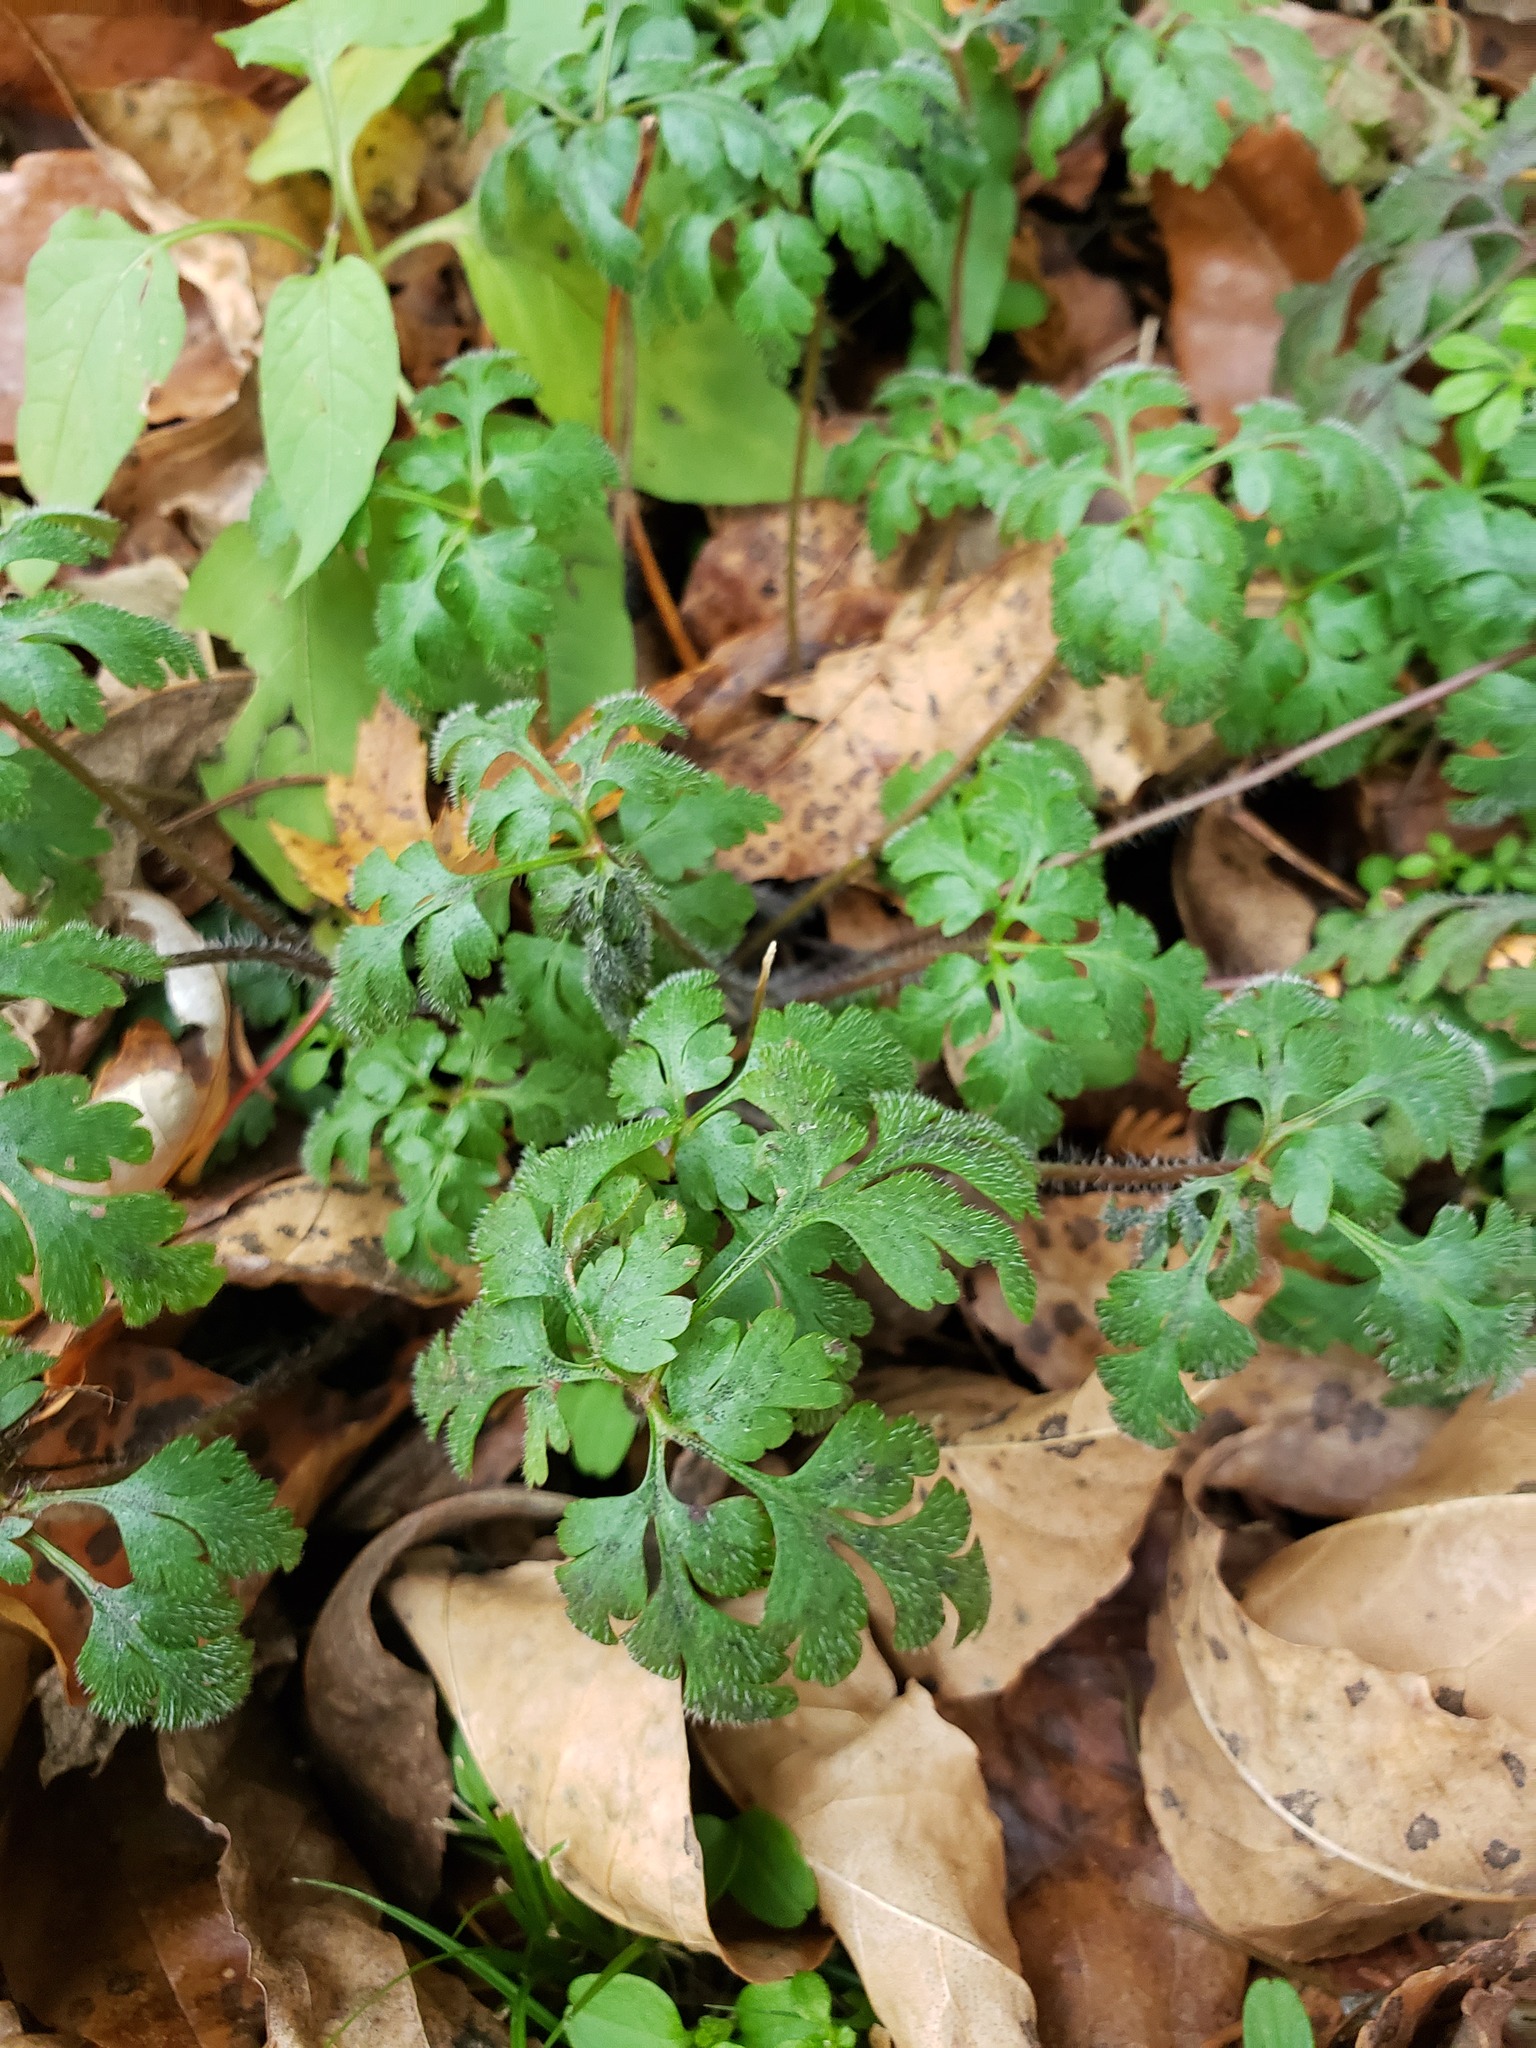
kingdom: Plantae
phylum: Tracheophyta
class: Magnoliopsida
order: Geraniales
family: Geraniaceae
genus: Geranium
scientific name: Geranium robertianum
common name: Herb-robert
